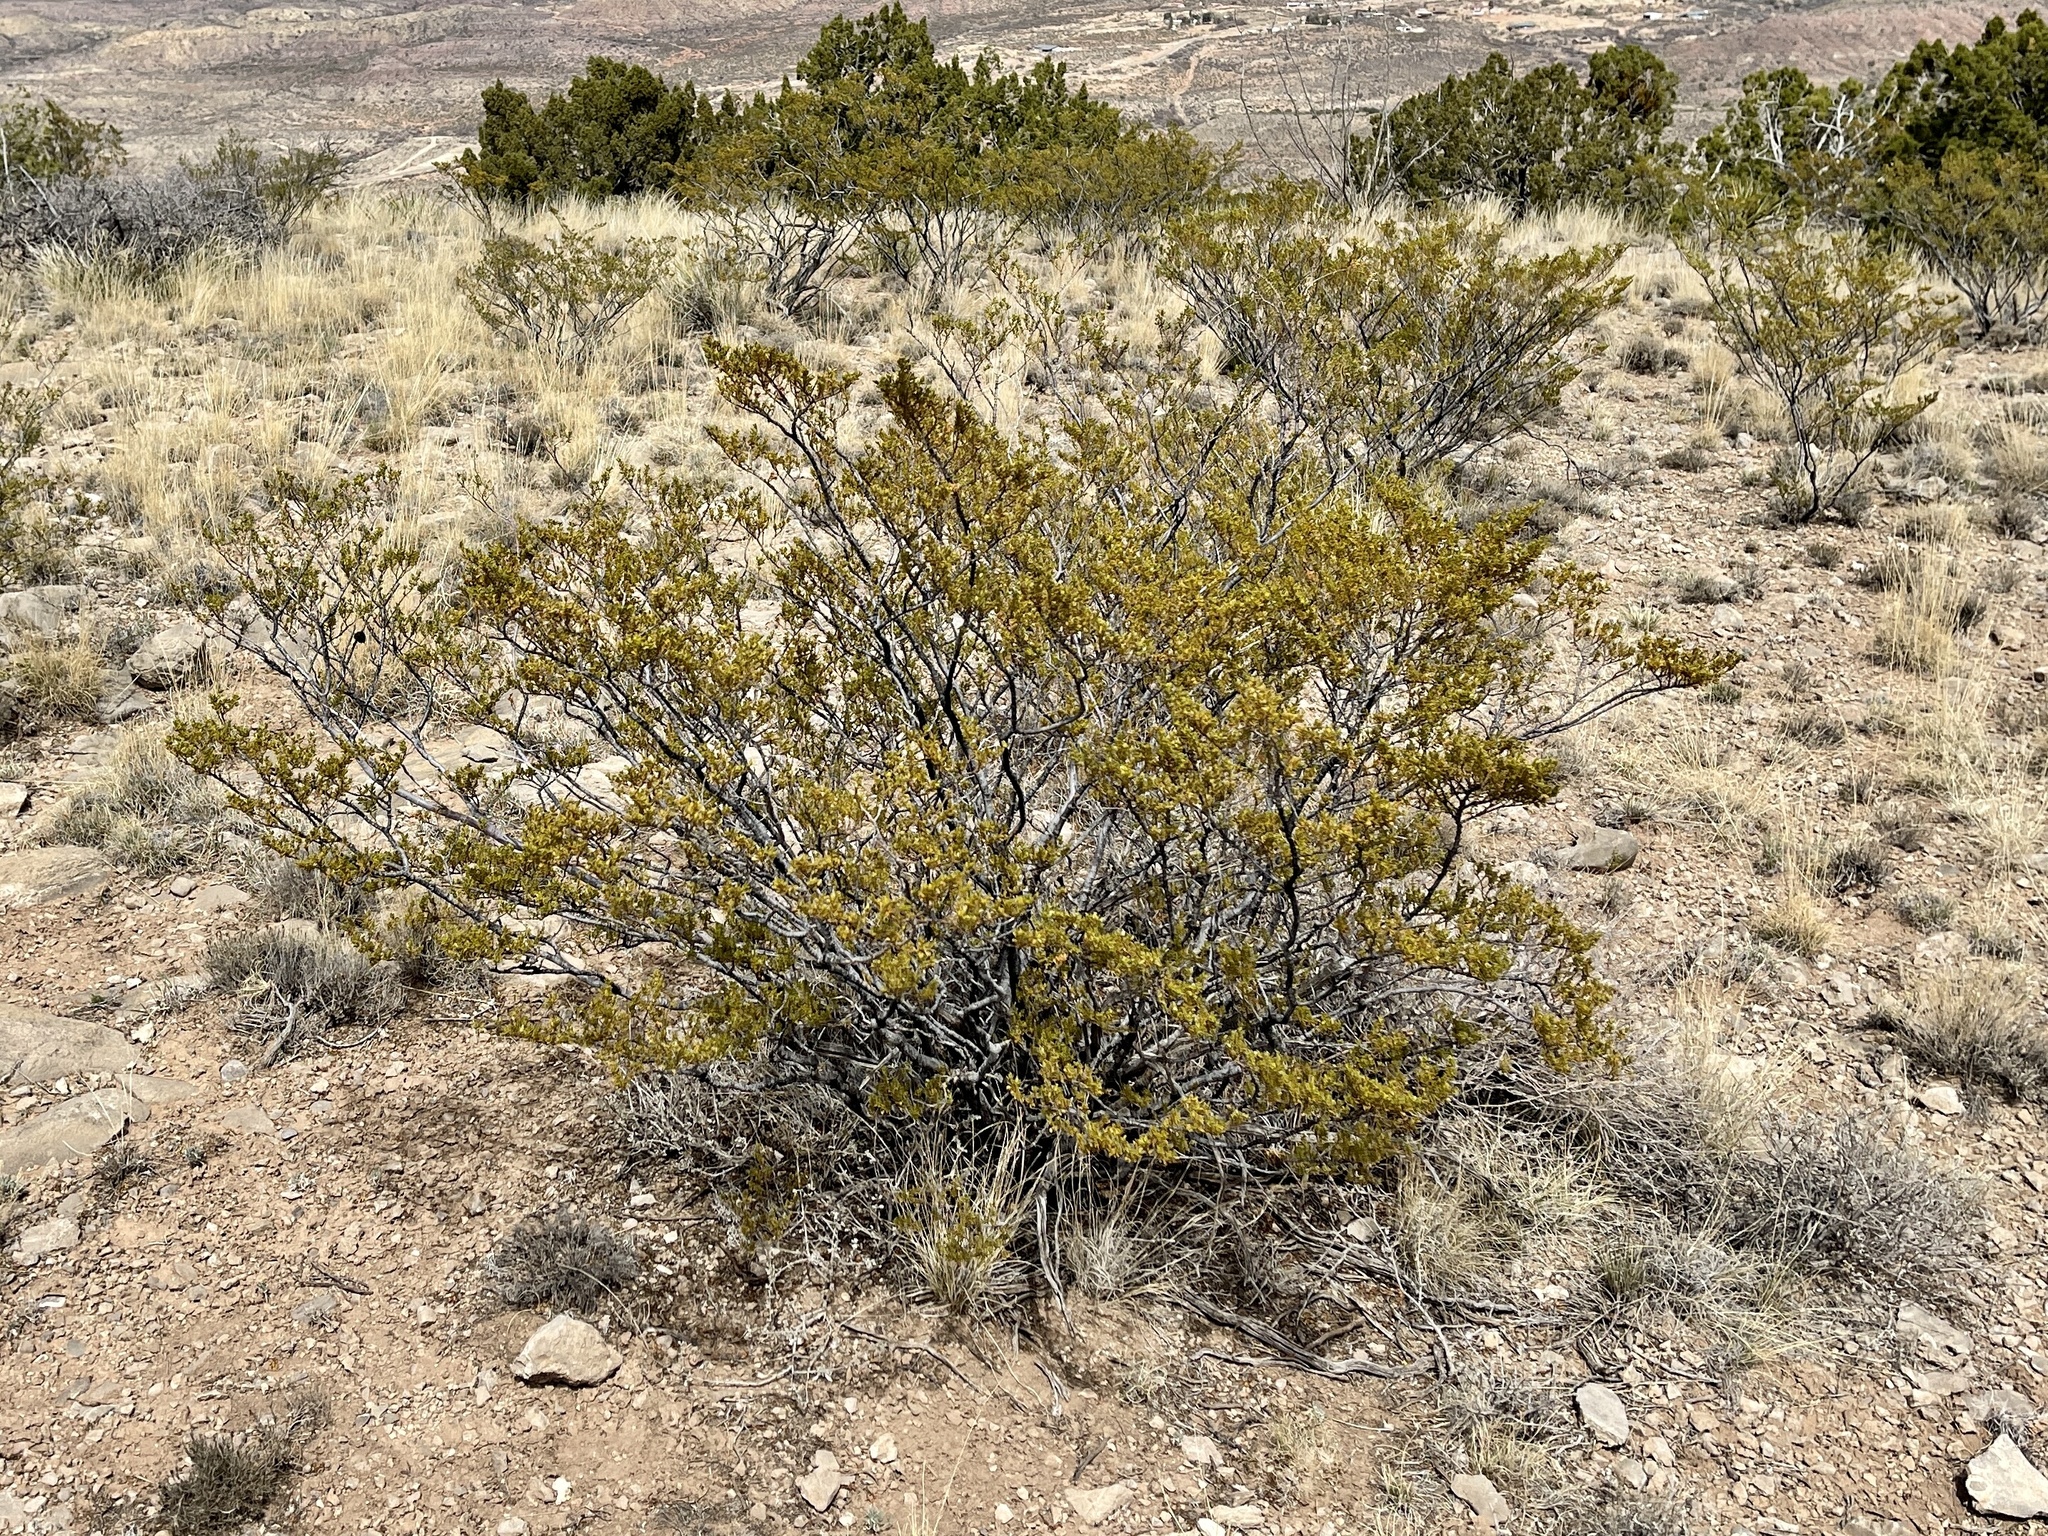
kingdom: Plantae
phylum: Tracheophyta
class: Magnoliopsida
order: Zygophyllales
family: Zygophyllaceae
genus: Larrea
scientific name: Larrea tridentata
